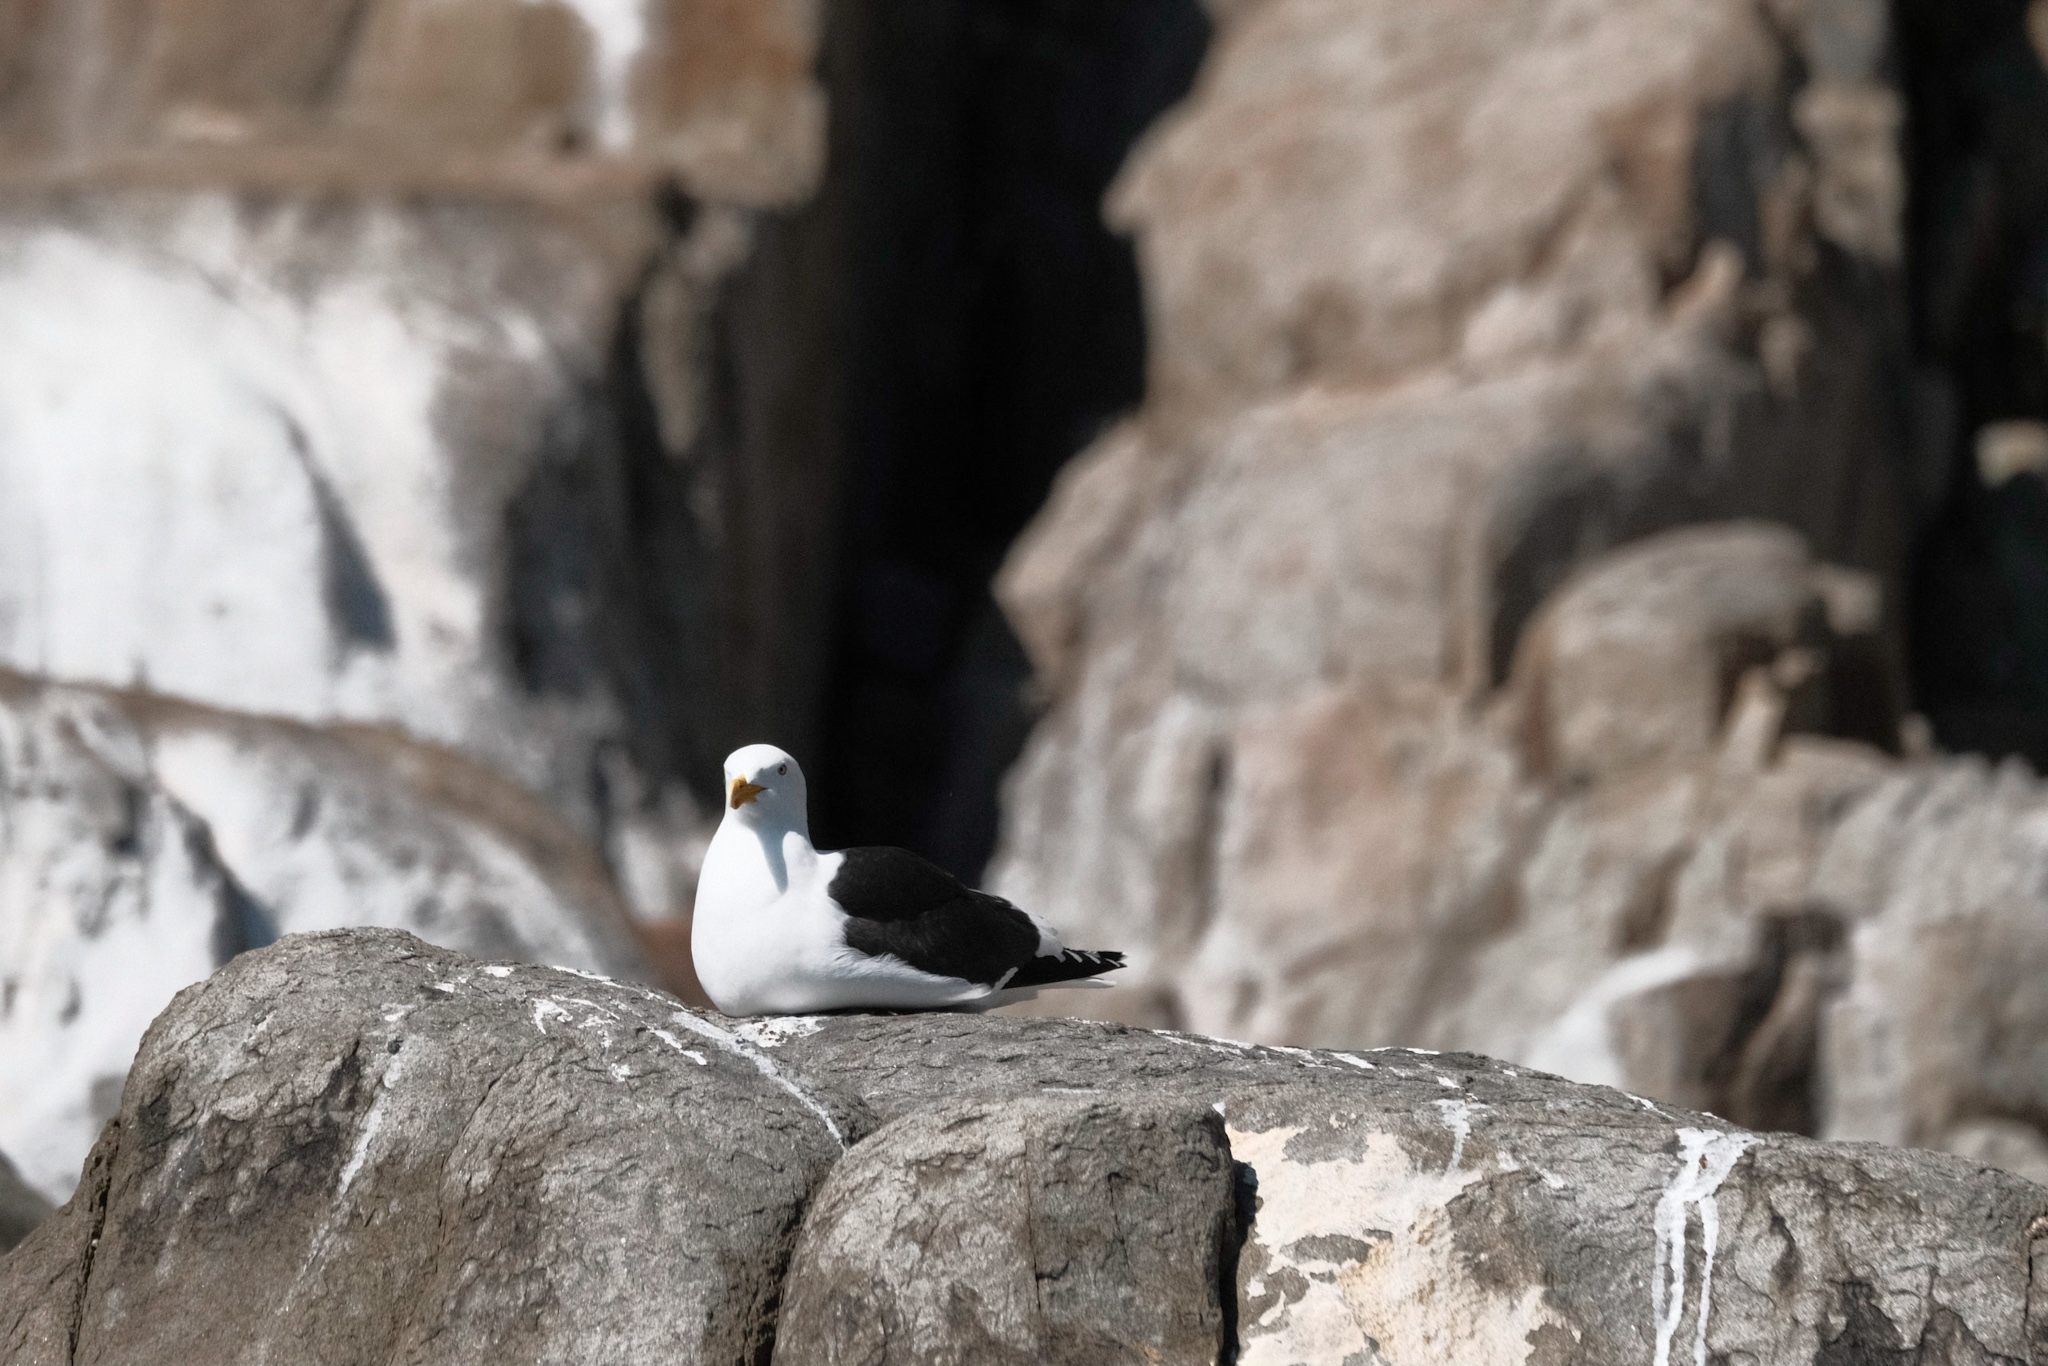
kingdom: Animalia
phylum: Chordata
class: Aves
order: Charadriiformes
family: Laridae
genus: Larus
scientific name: Larus dominicanus
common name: Kelp gull
